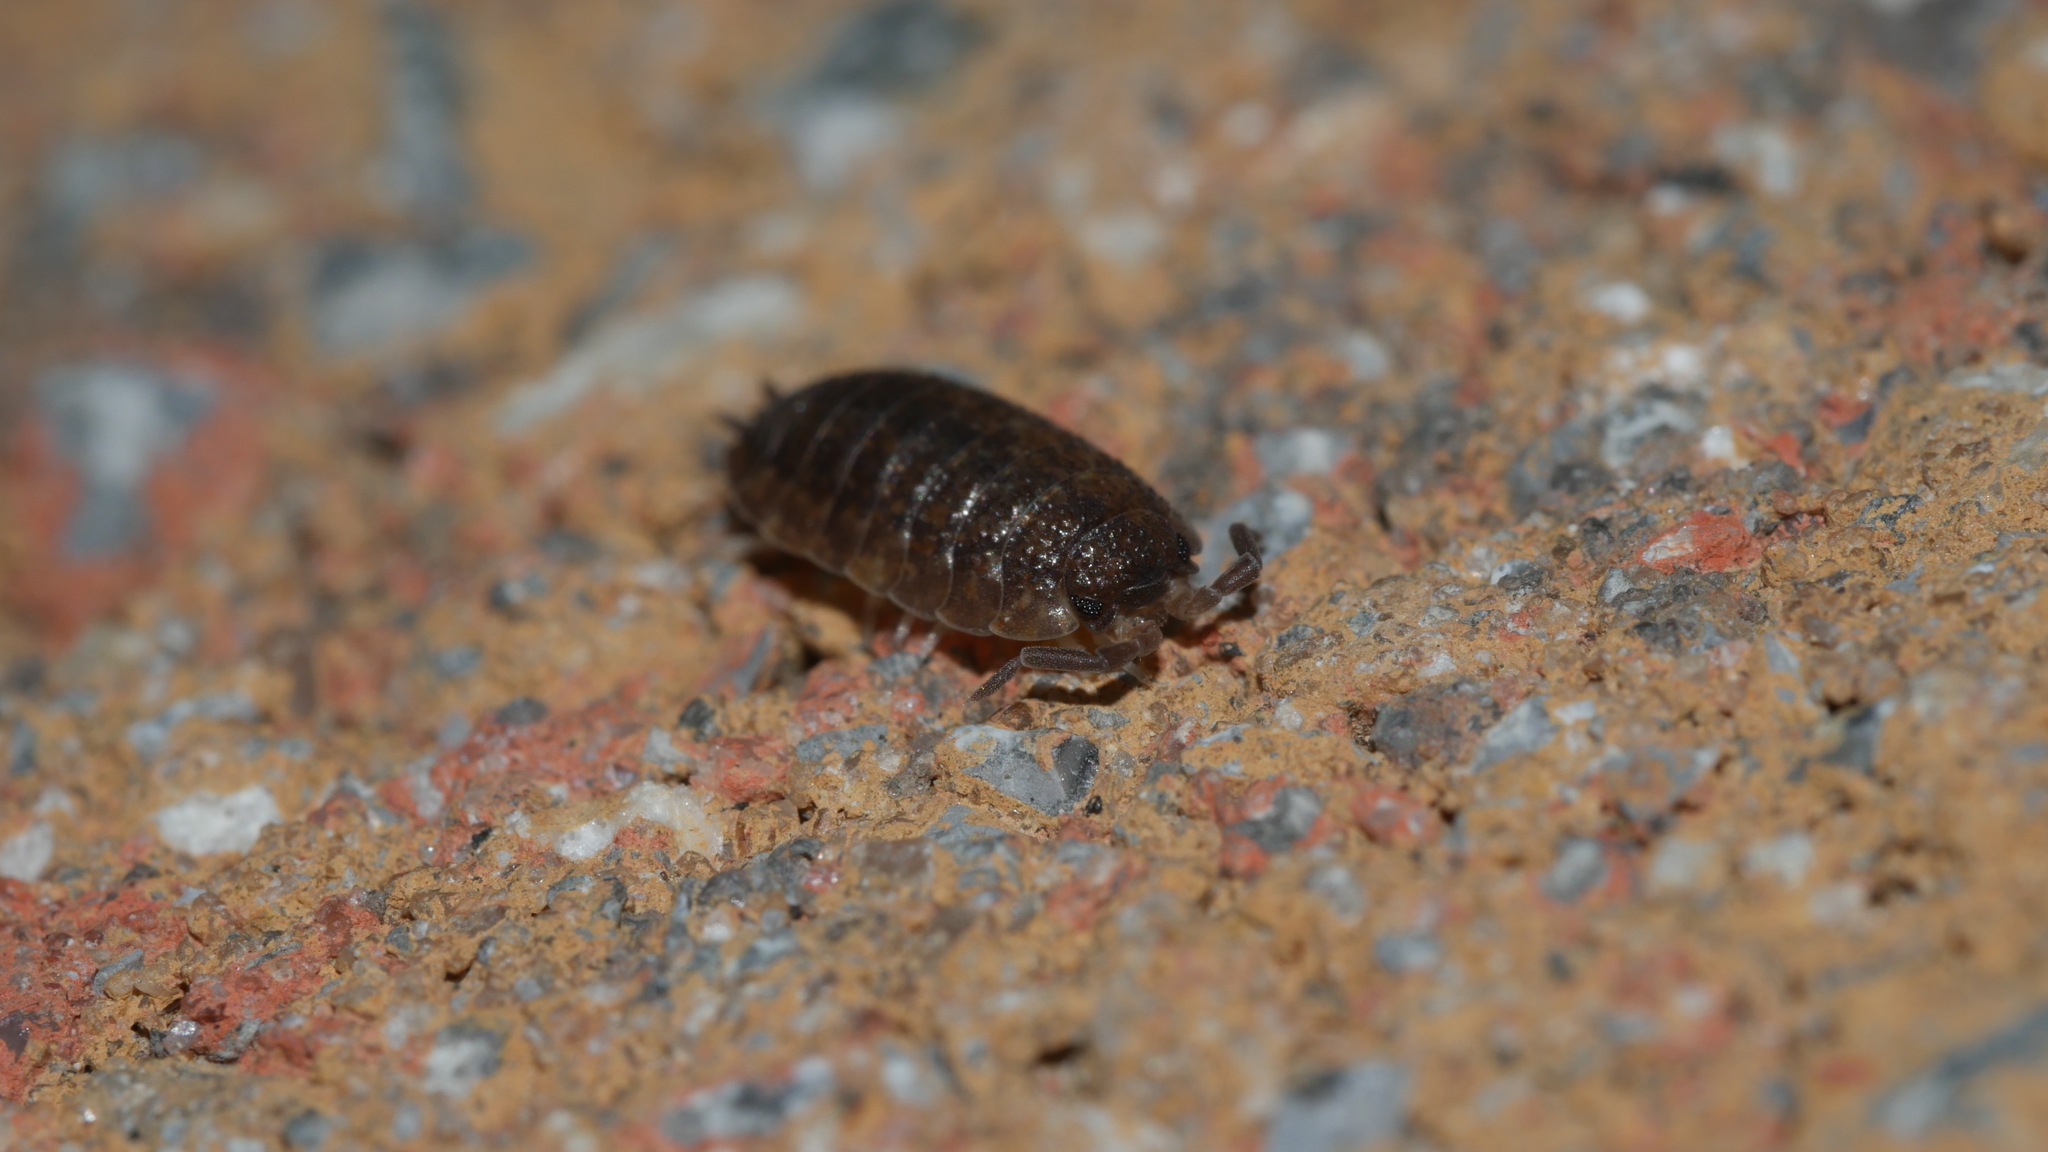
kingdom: Animalia
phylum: Arthropoda
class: Malacostraca
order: Isopoda
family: Porcellionidae
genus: Porcellio
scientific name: Porcellio scaber
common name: Common rough woodlouse
